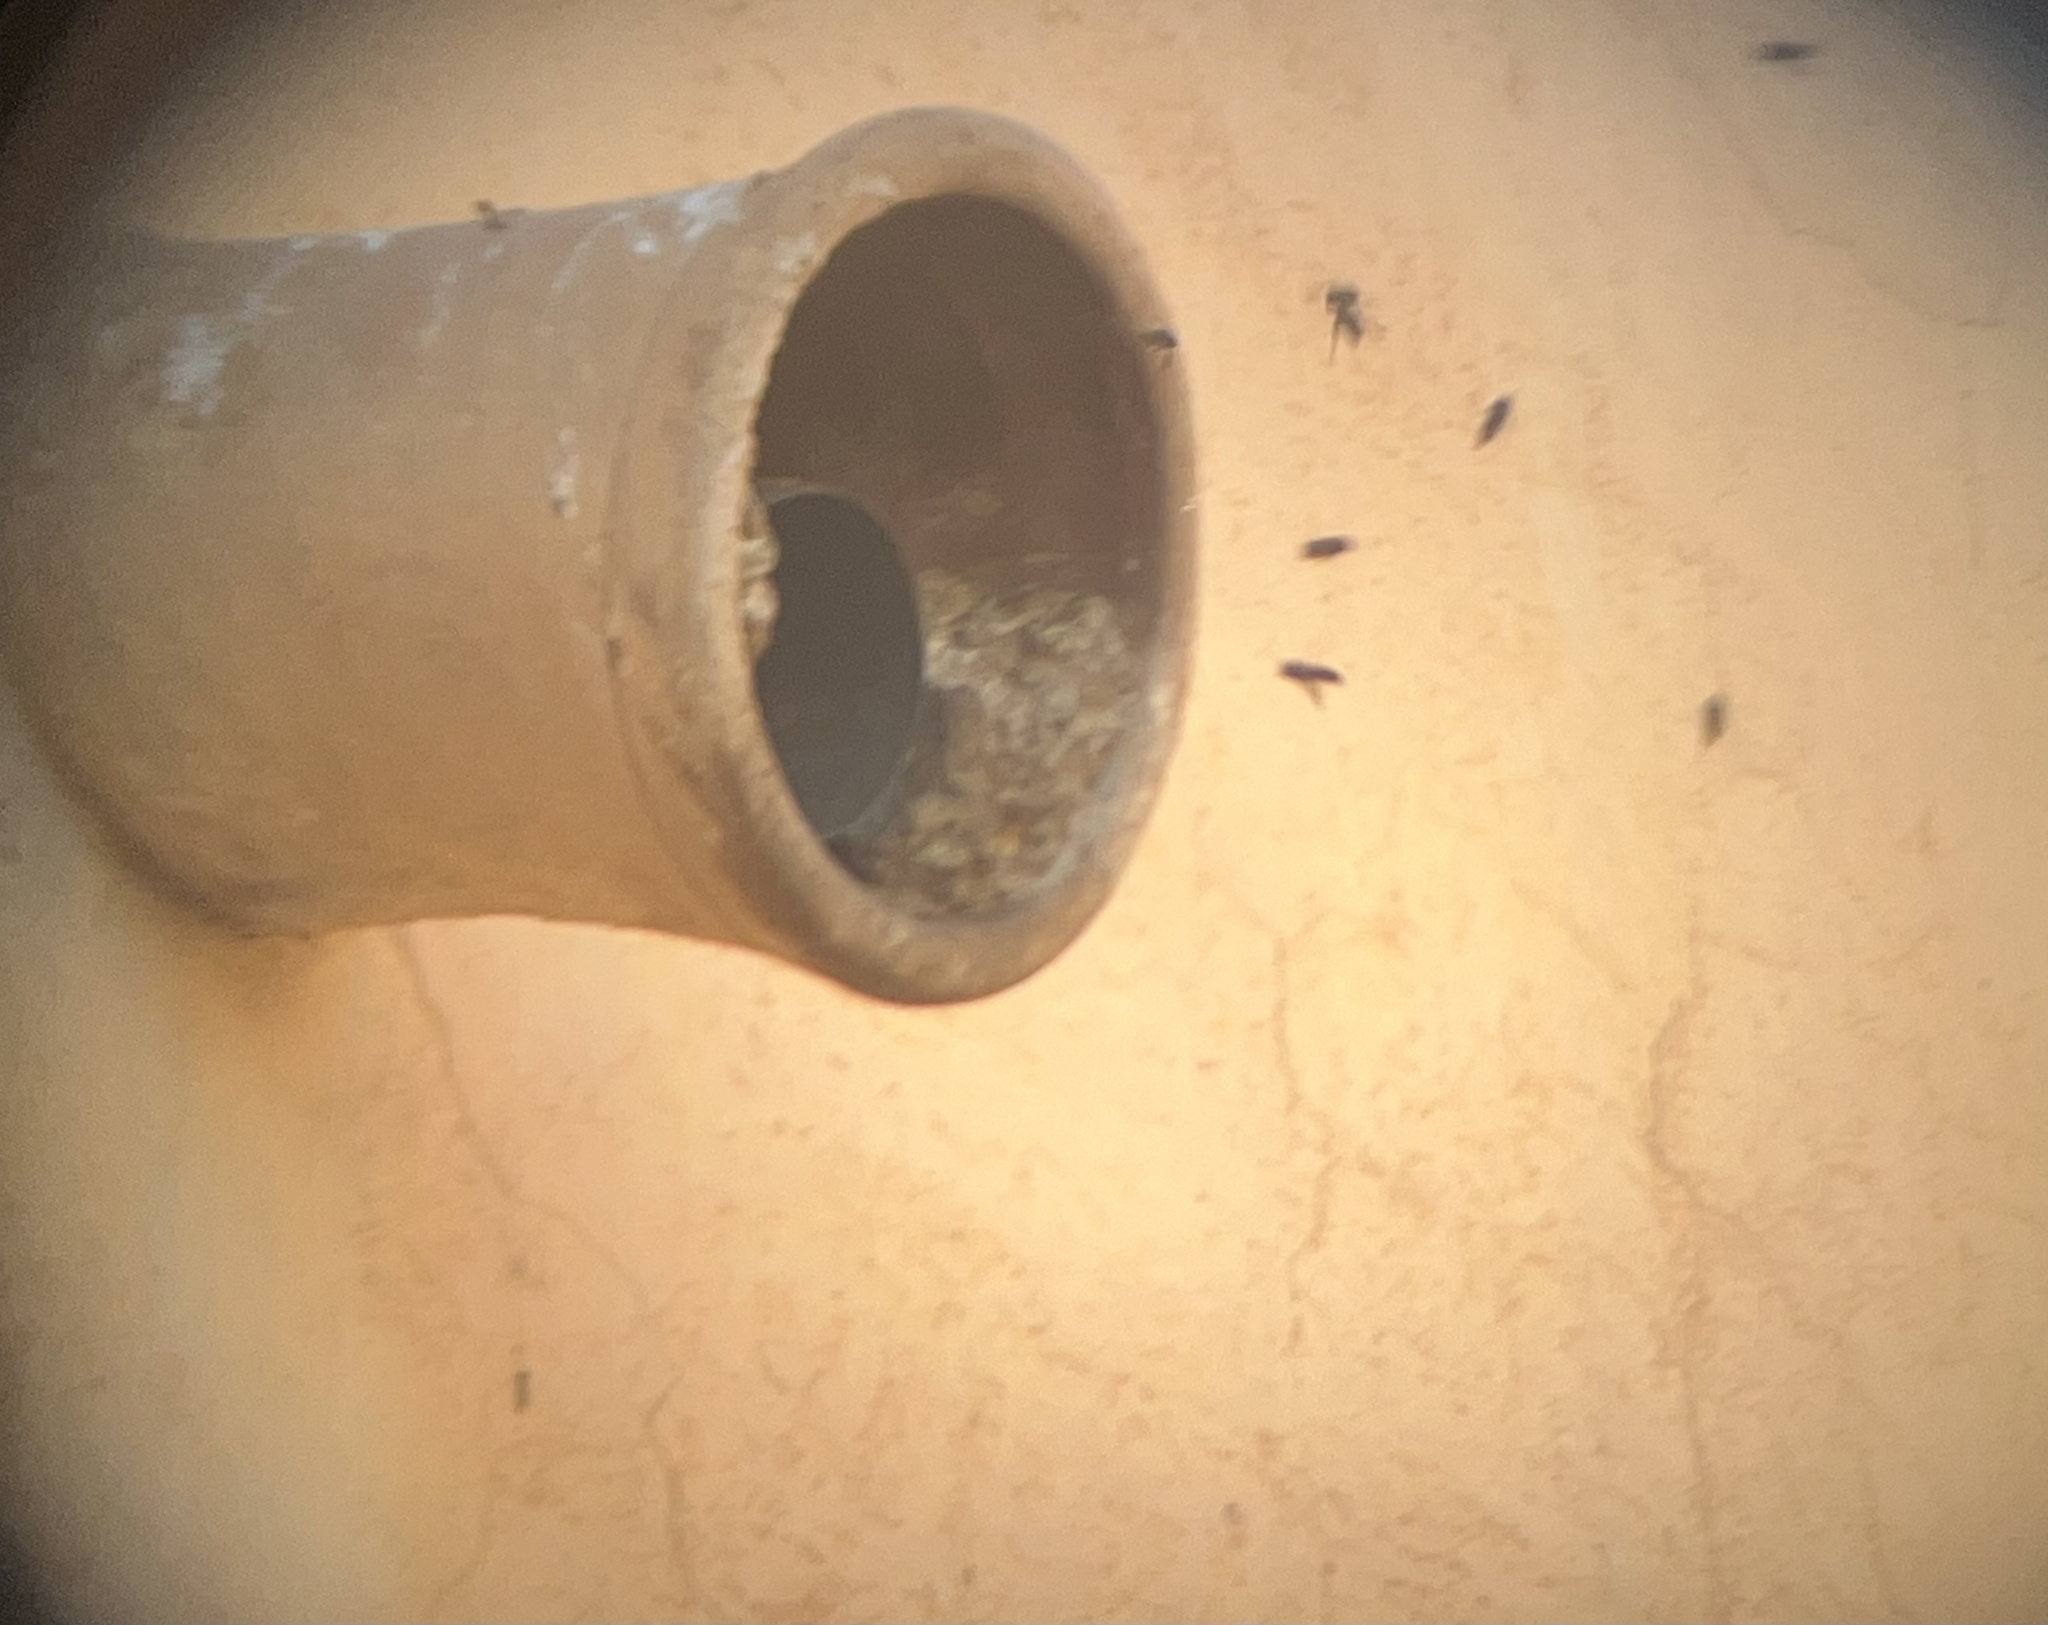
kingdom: Animalia
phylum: Arthropoda
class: Insecta
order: Hymenoptera
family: Apidae
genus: Apis
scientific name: Apis mellifera
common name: Honey bee
